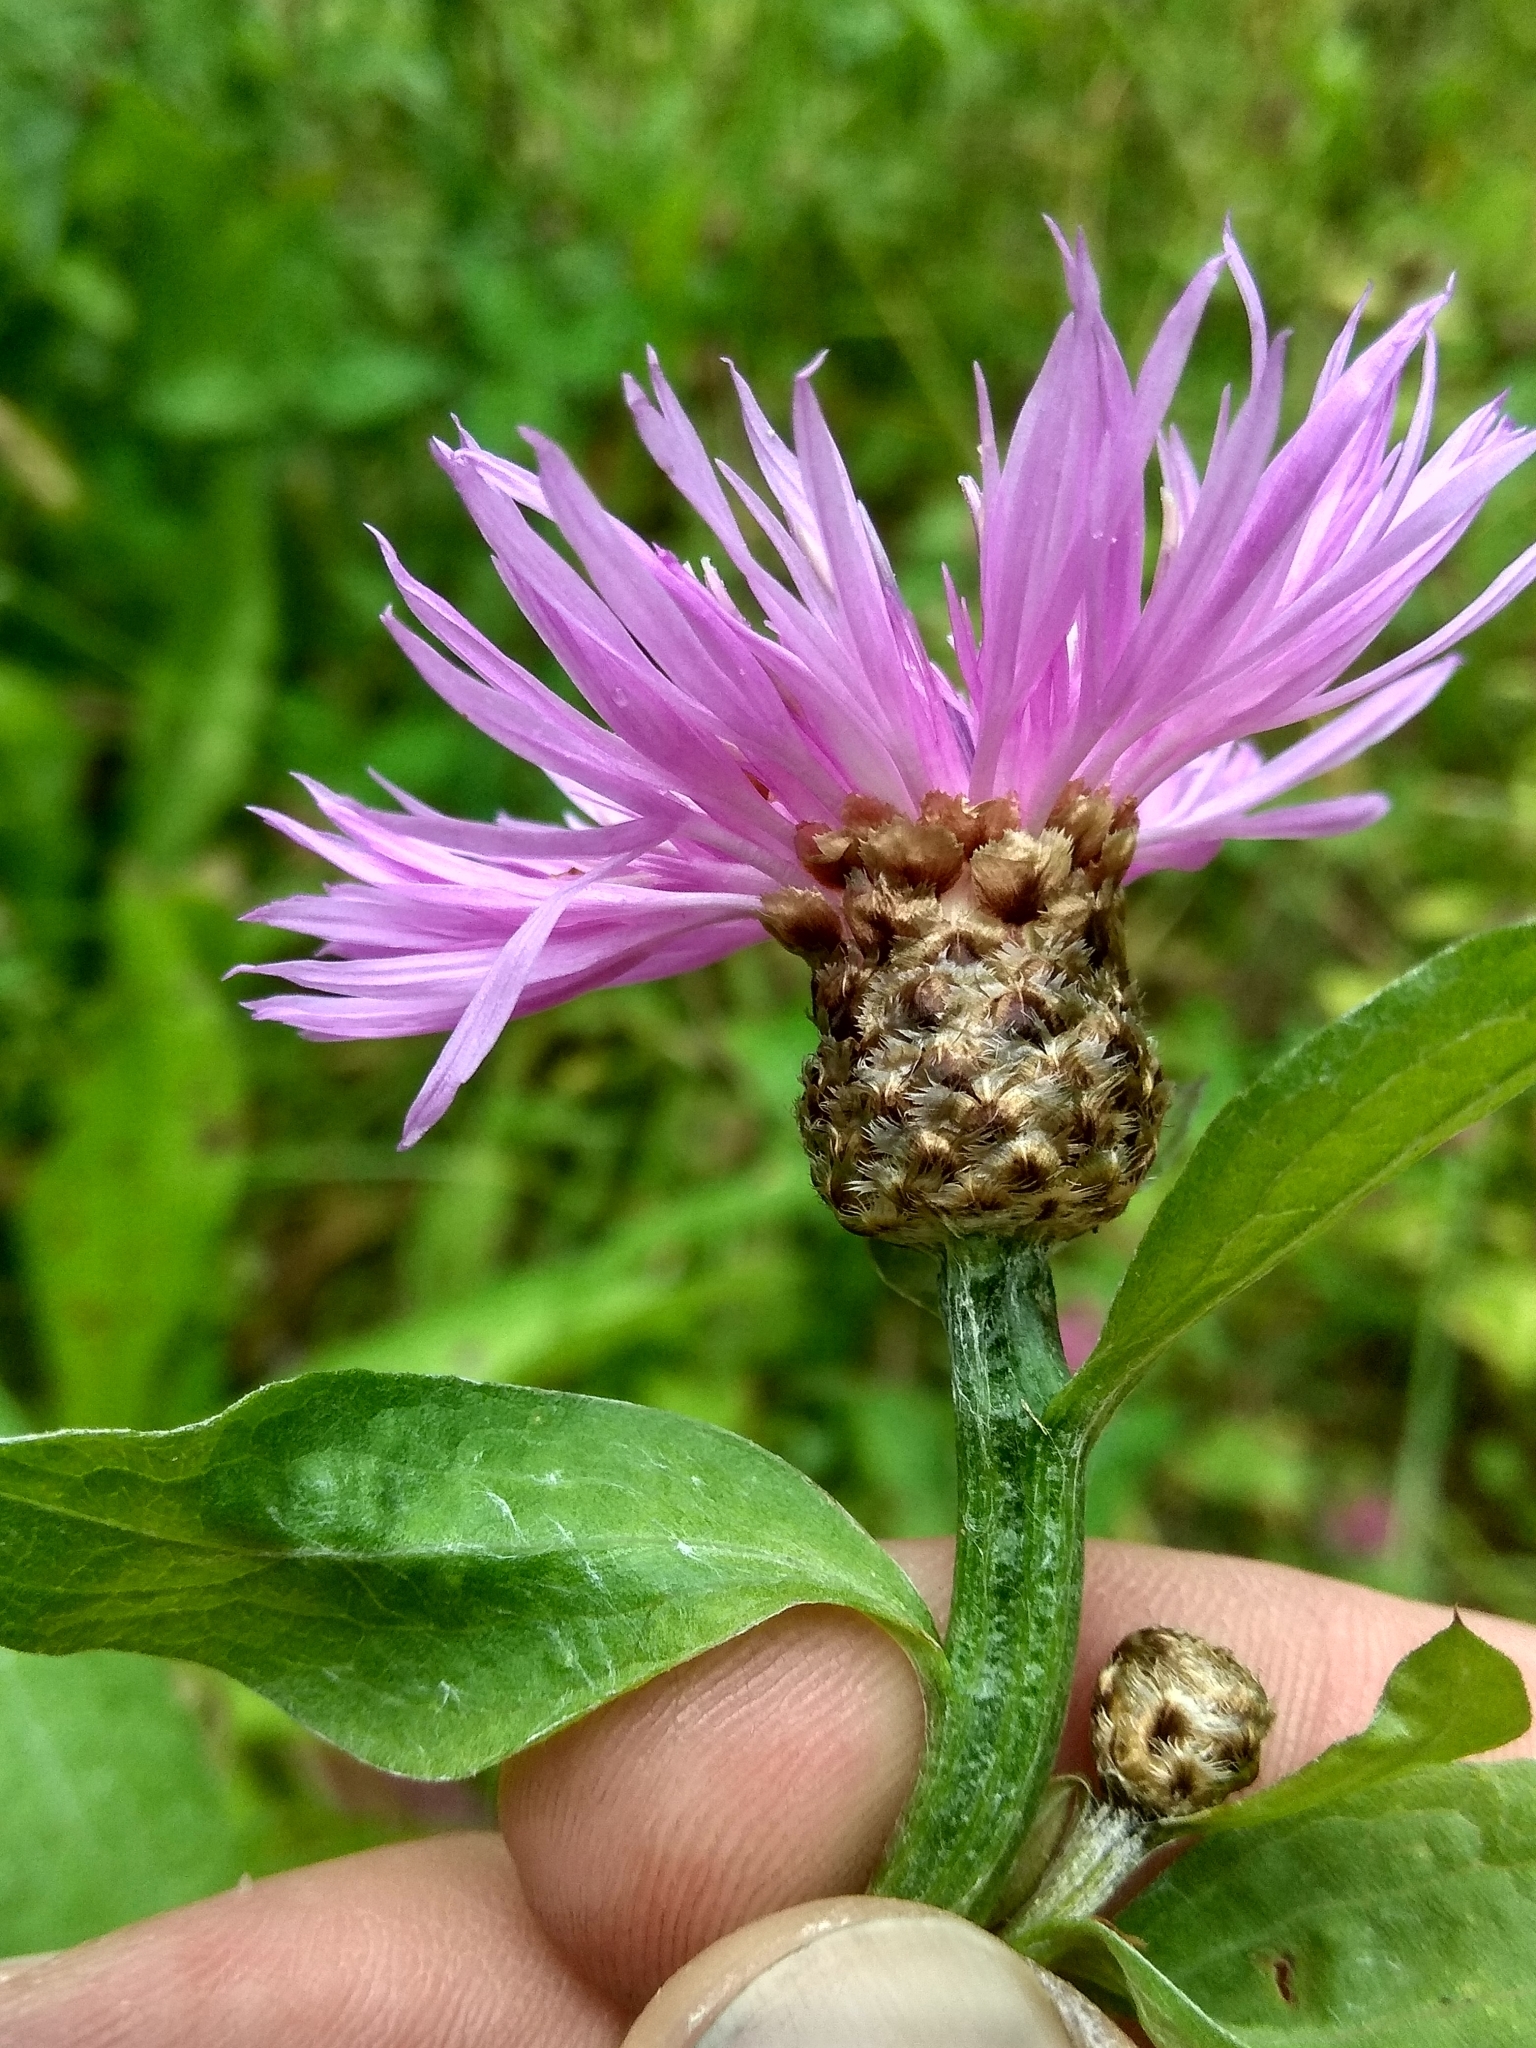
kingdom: Plantae
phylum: Tracheophyta
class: Magnoliopsida
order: Asterales
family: Asteraceae
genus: Centaurea
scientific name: Centaurea jacea
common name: Brown knapweed
